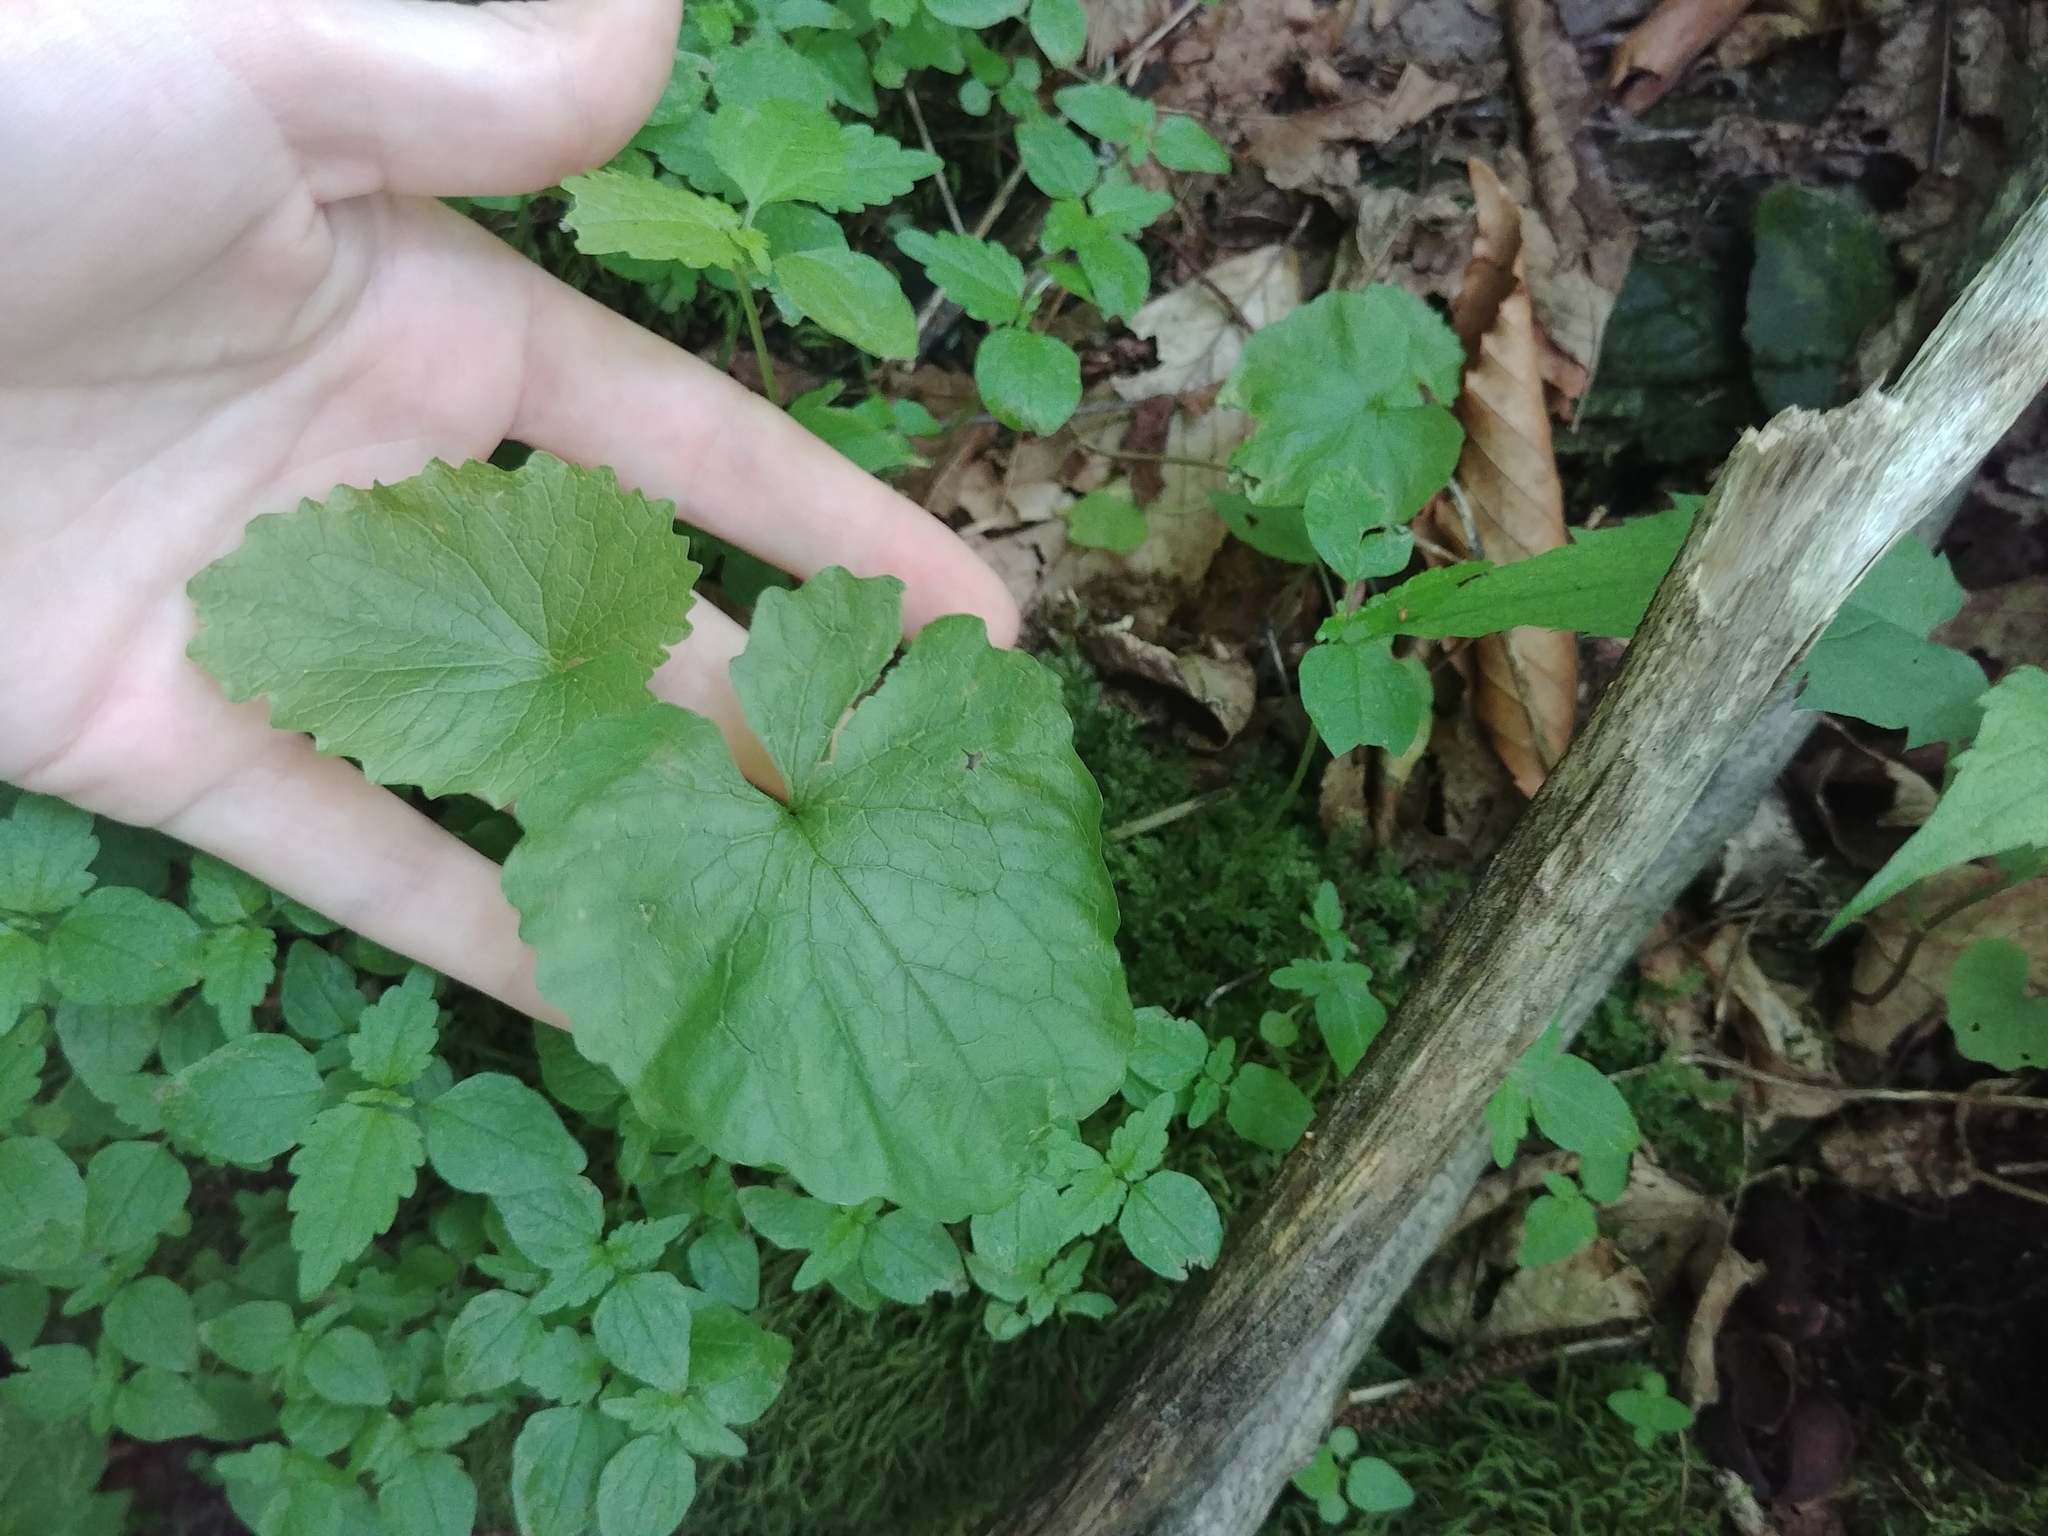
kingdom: Plantae
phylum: Tracheophyta
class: Magnoliopsida
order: Brassicales
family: Brassicaceae
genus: Alliaria
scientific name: Alliaria petiolata
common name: Garlic mustard
